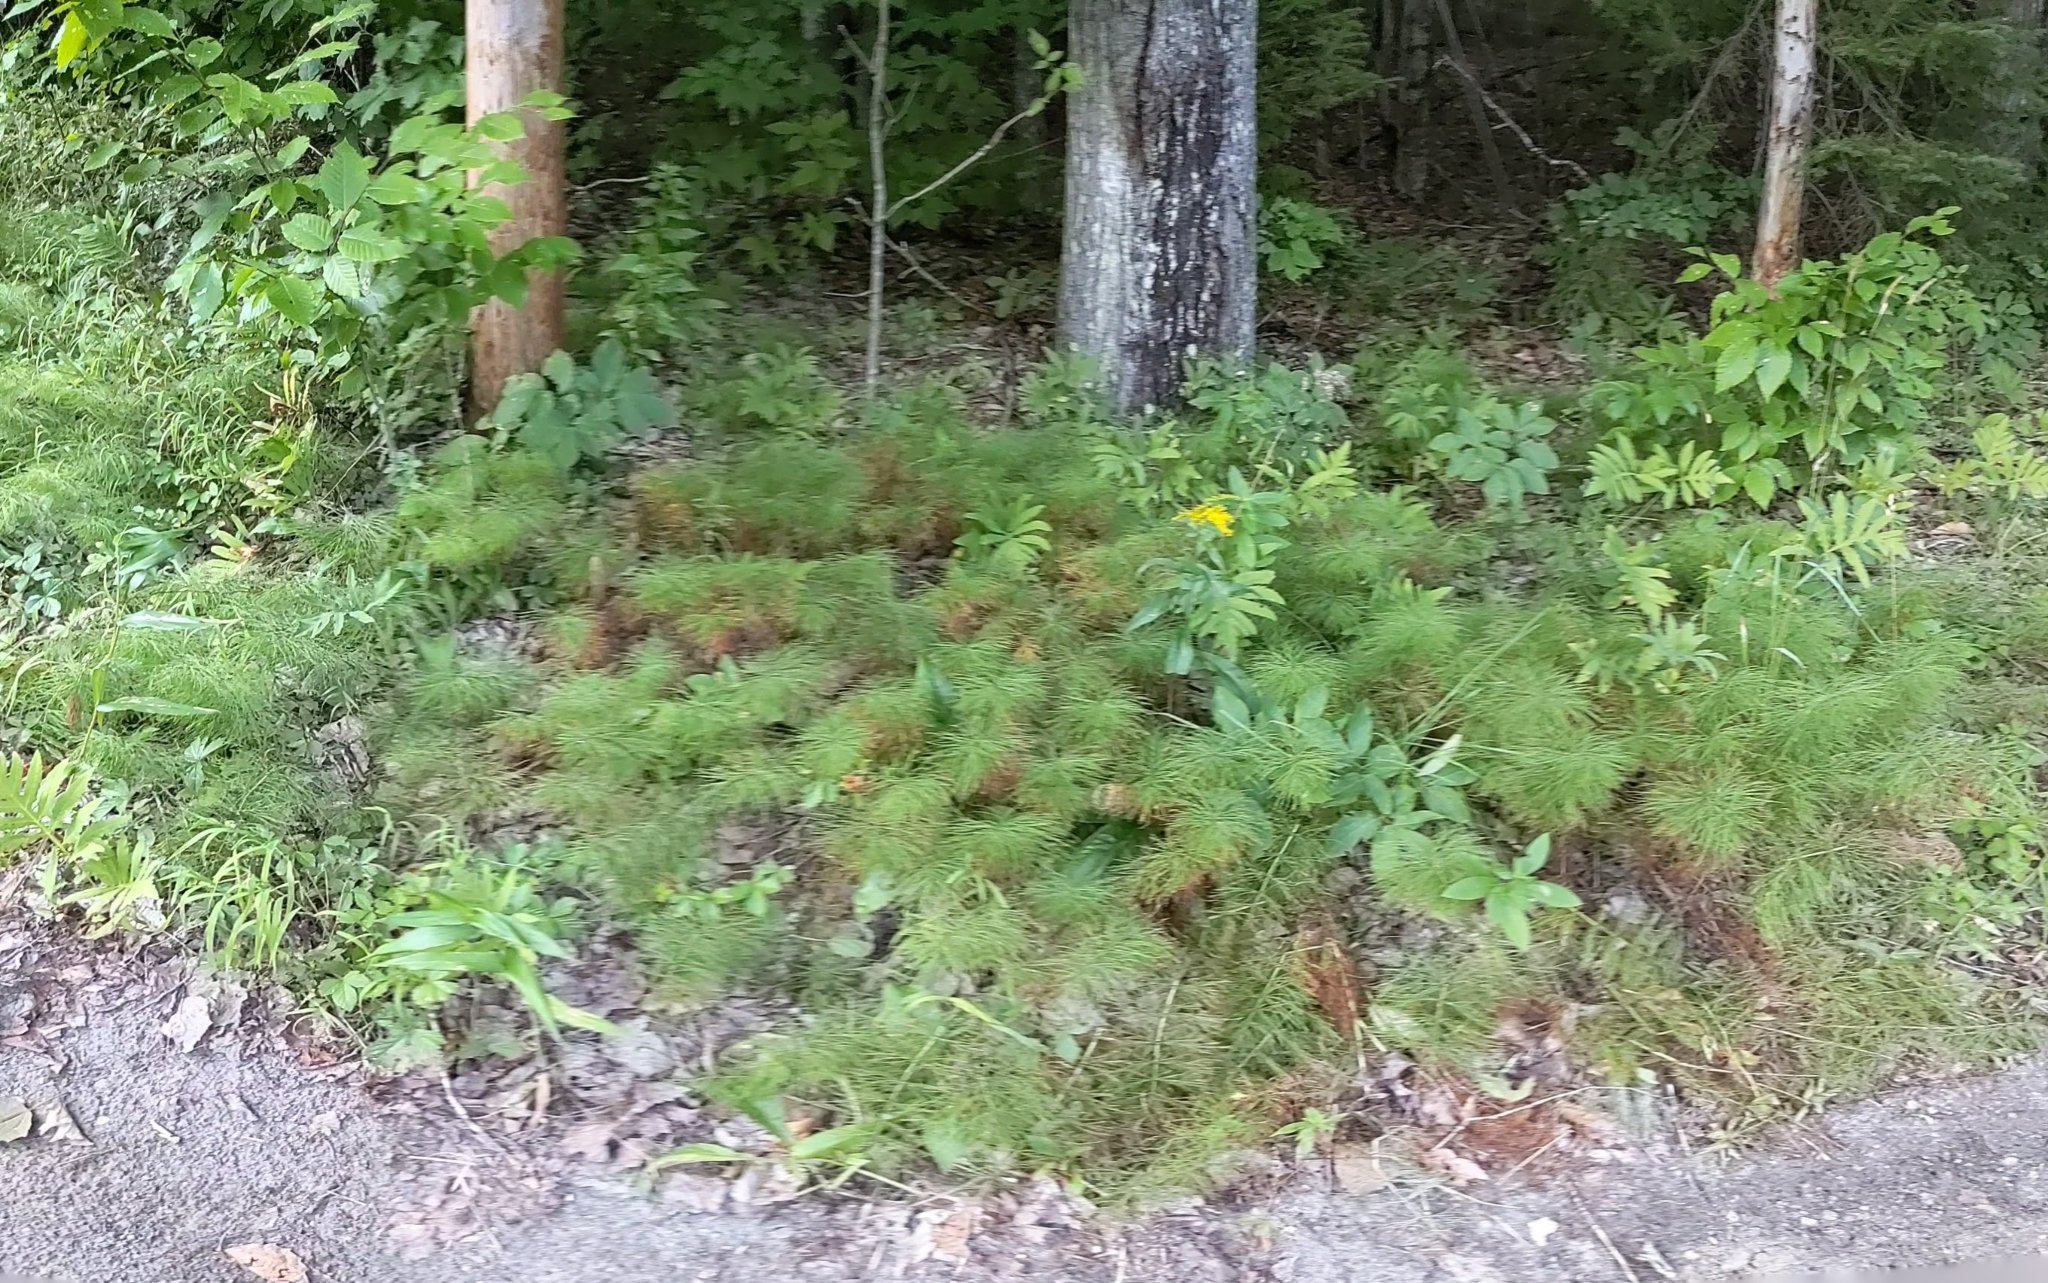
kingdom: Plantae
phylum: Tracheophyta
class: Polypodiopsida
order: Equisetales
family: Equisetaceae
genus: Equisetum
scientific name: Equisetum sylvaticum
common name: Wood horsetail
